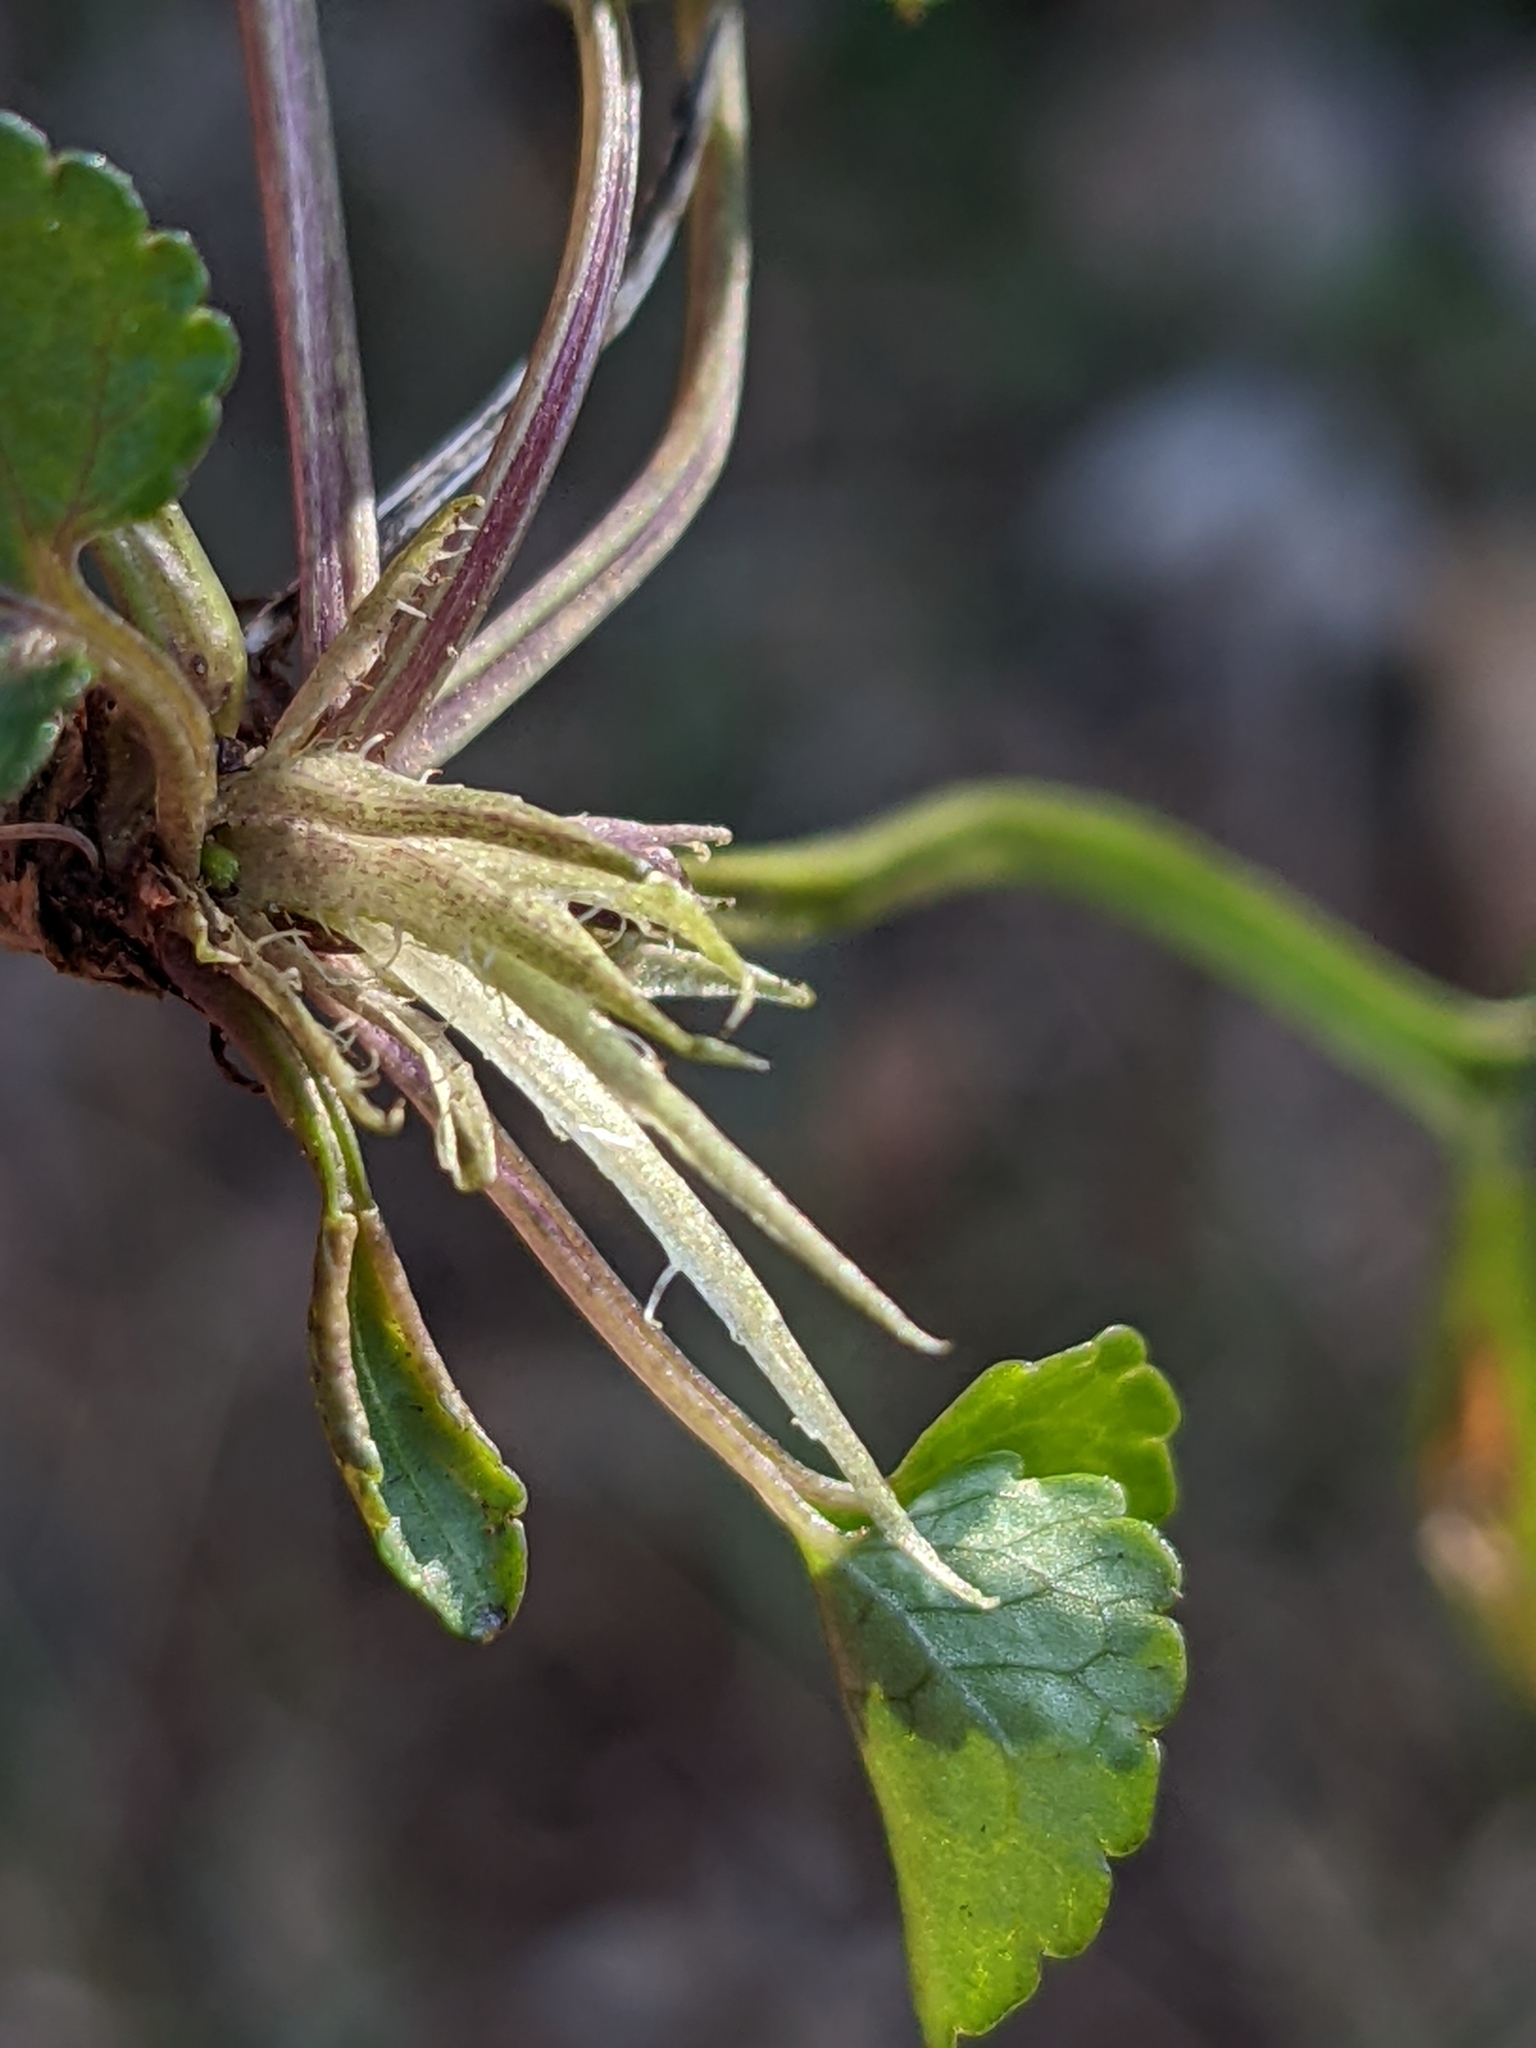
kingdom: Plantae
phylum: Tracheophyta
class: Magnoliopsida
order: Malpighiales
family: Violaceae
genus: Viola
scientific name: Viola alba
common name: White violet
